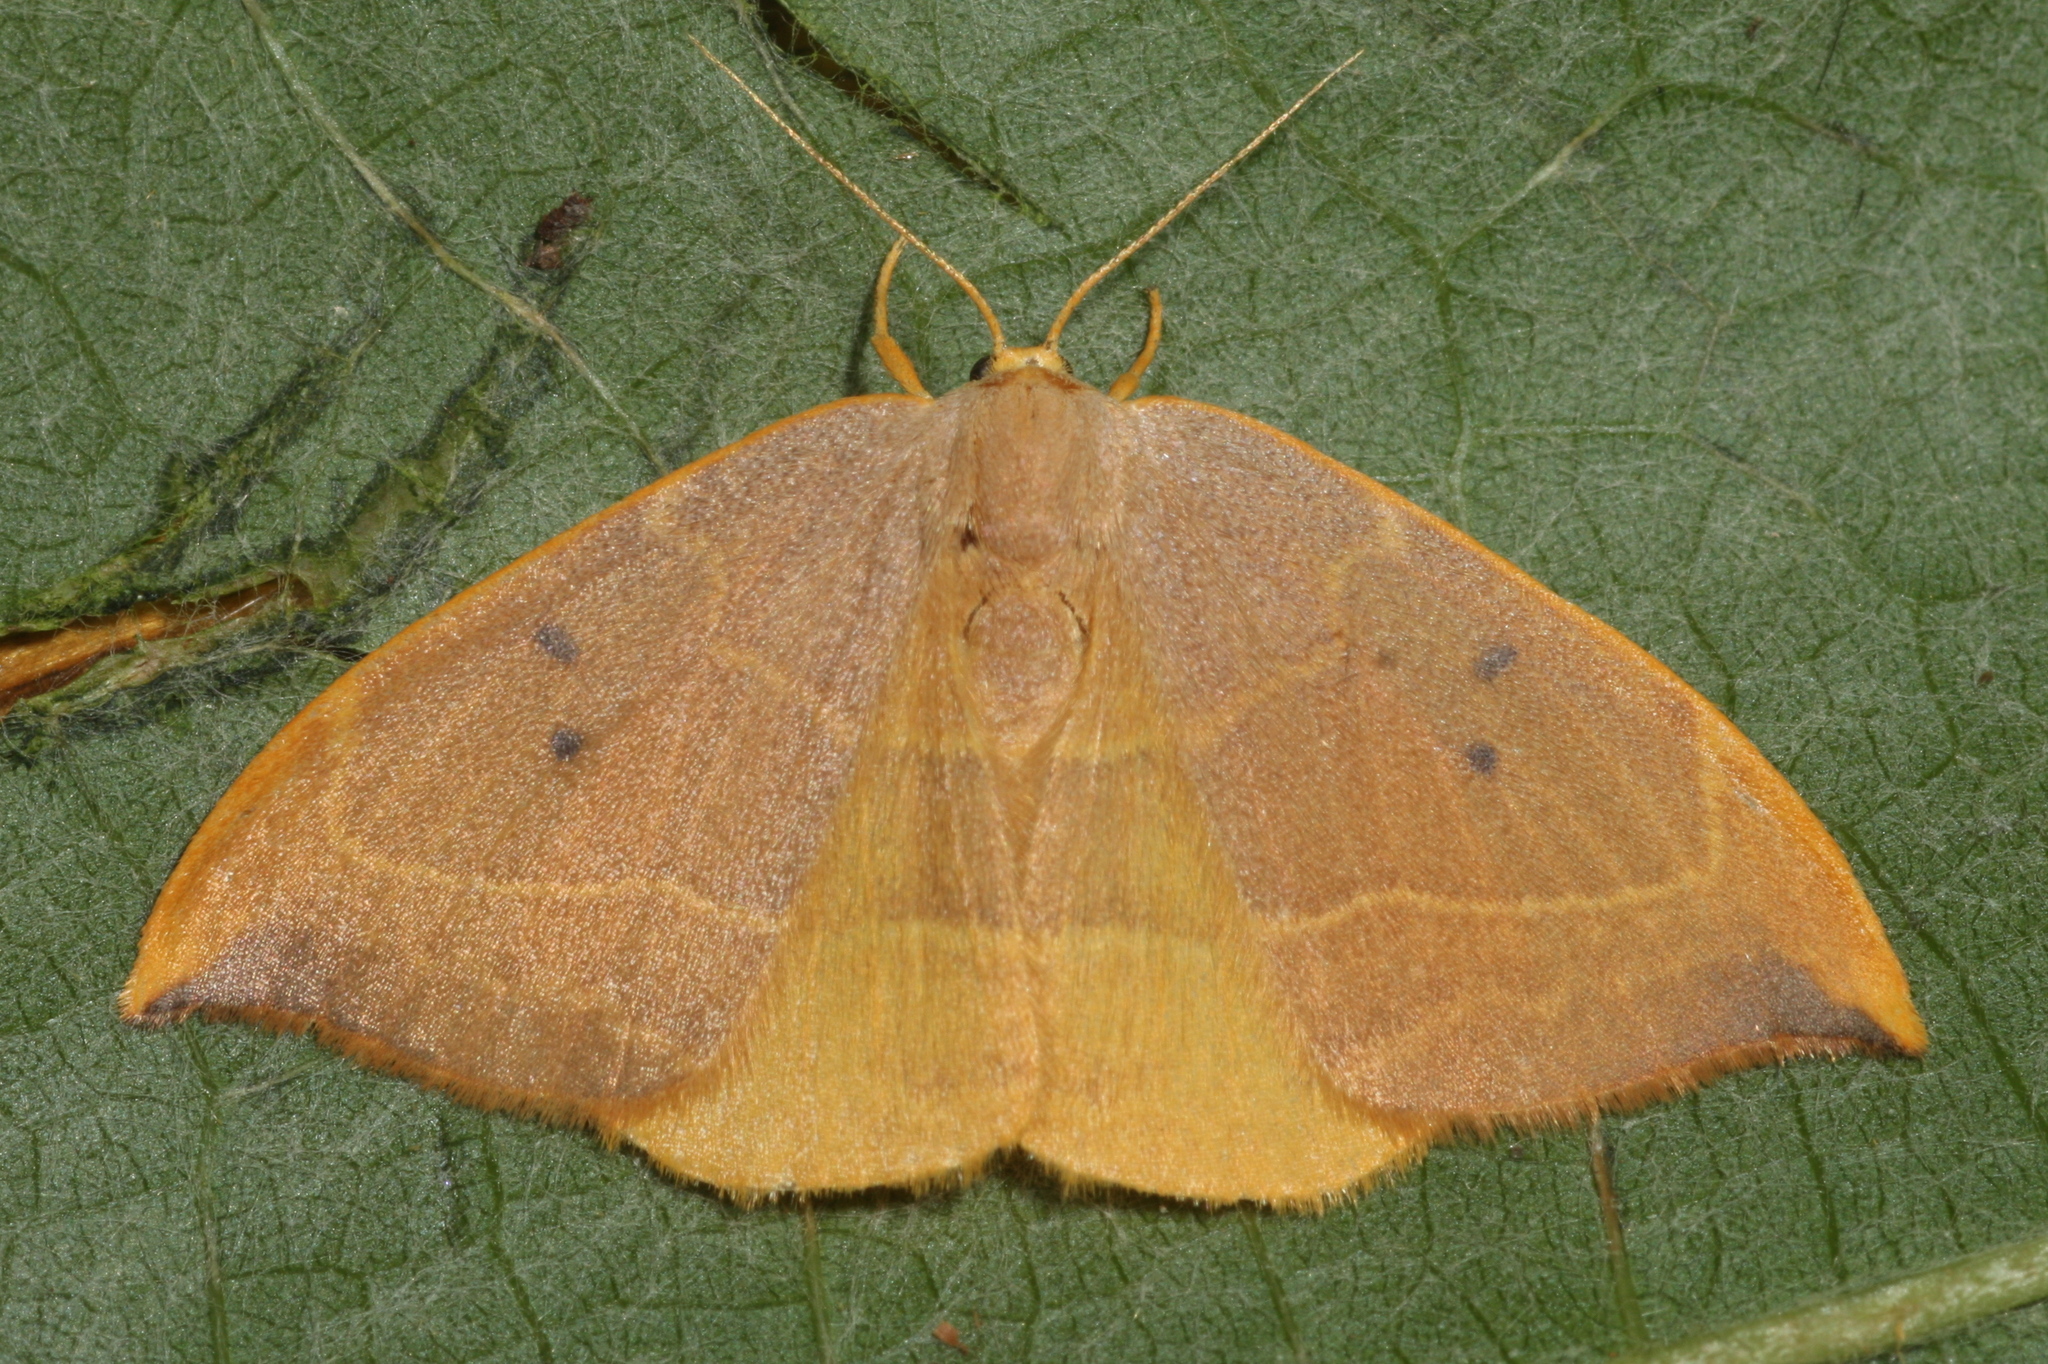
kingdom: Animalia
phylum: Arthropoda
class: Insecta
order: Lepidoptera
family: Drepanidae
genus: Watsonalla
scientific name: Watsonalla binaria
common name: Oak hook-tip
